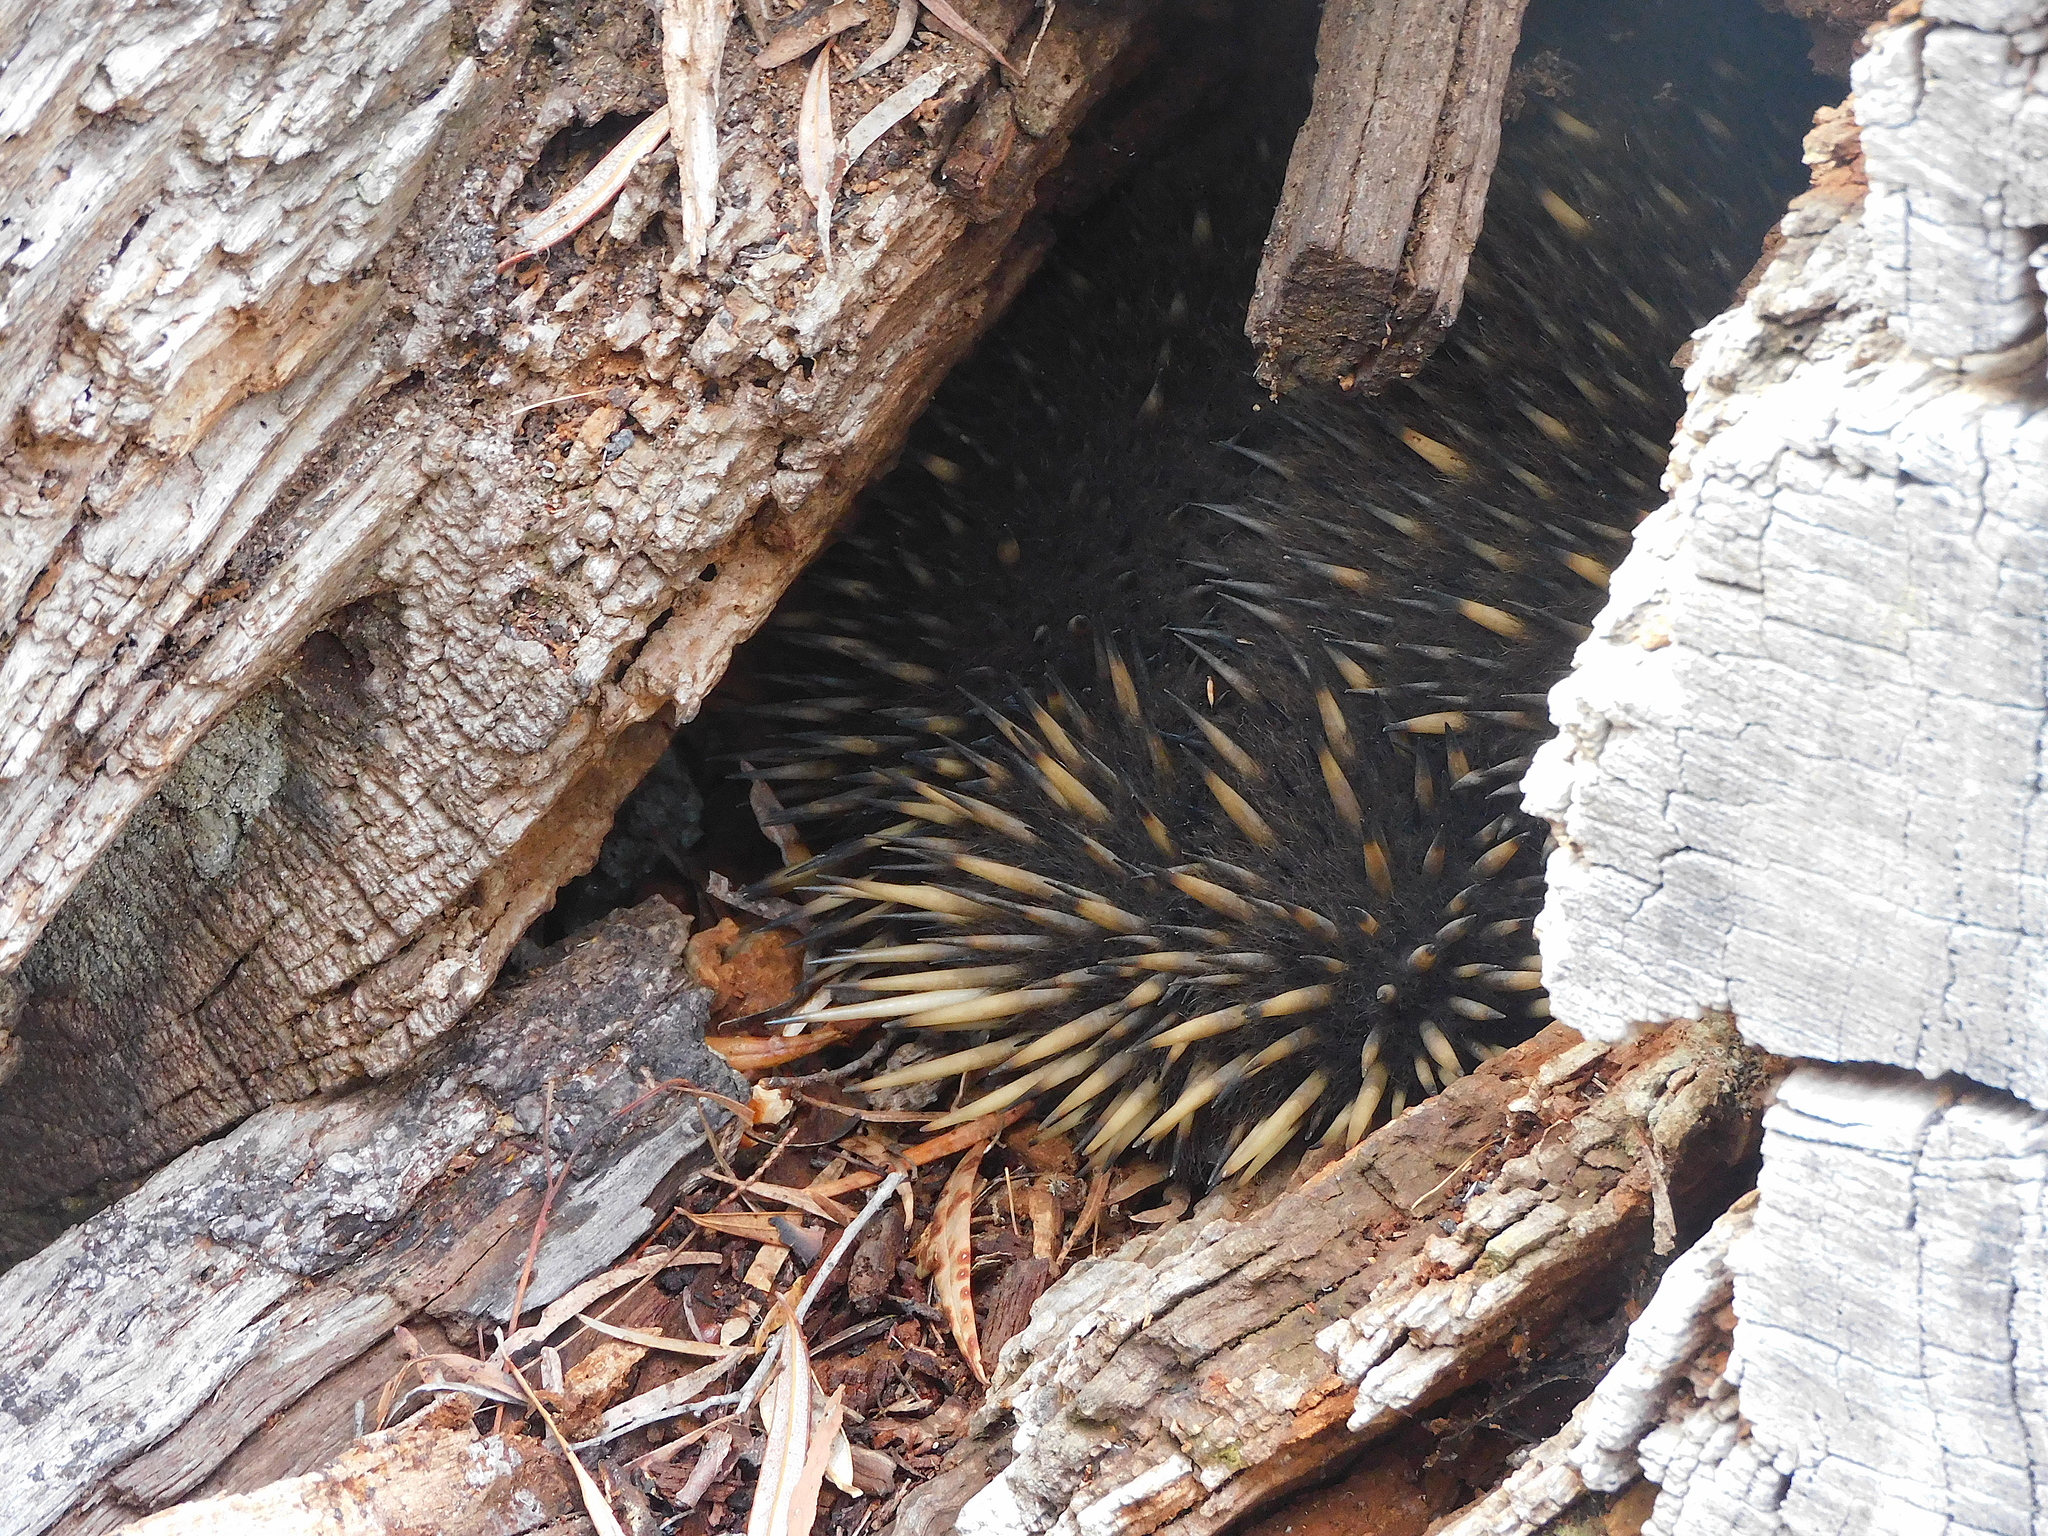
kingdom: Animalia
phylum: Chordata
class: Mammalia
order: Monotremata
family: Tachyglossidae
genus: Tachyglossus
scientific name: Tachyglossus aculeatus
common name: Short-beaked echidna
